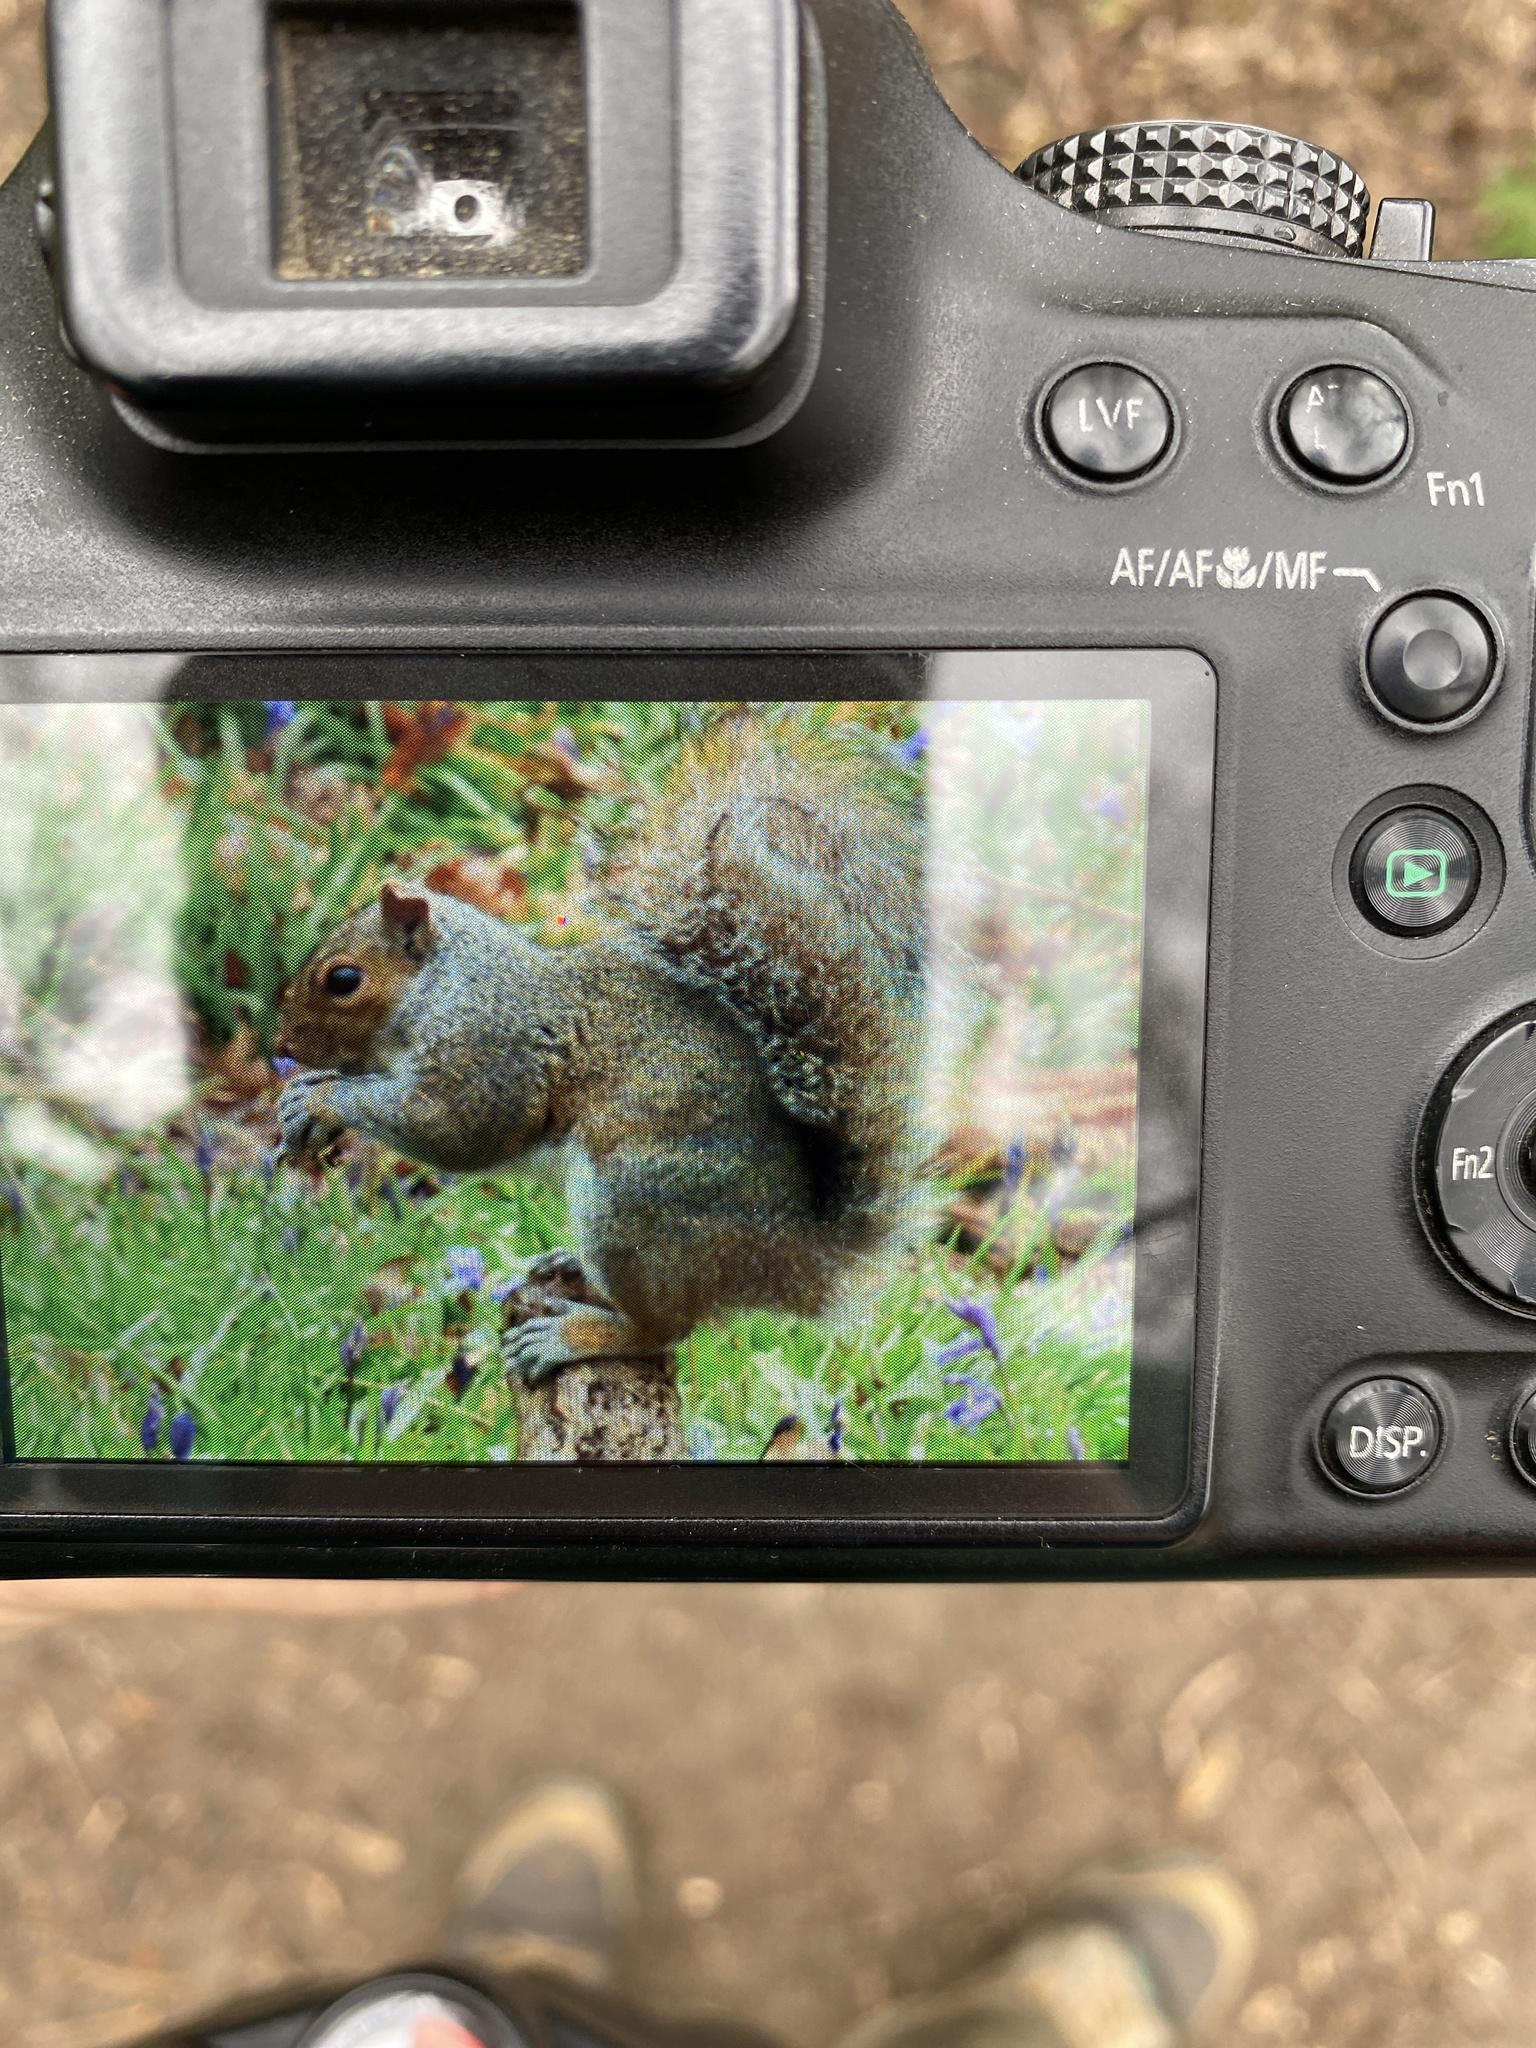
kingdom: Animalia
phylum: Chordata
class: Mammalia
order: Rodentia
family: Sciuridae
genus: Sciurus
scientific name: Sciurus carolinensis
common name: Eastern gray squirrel
